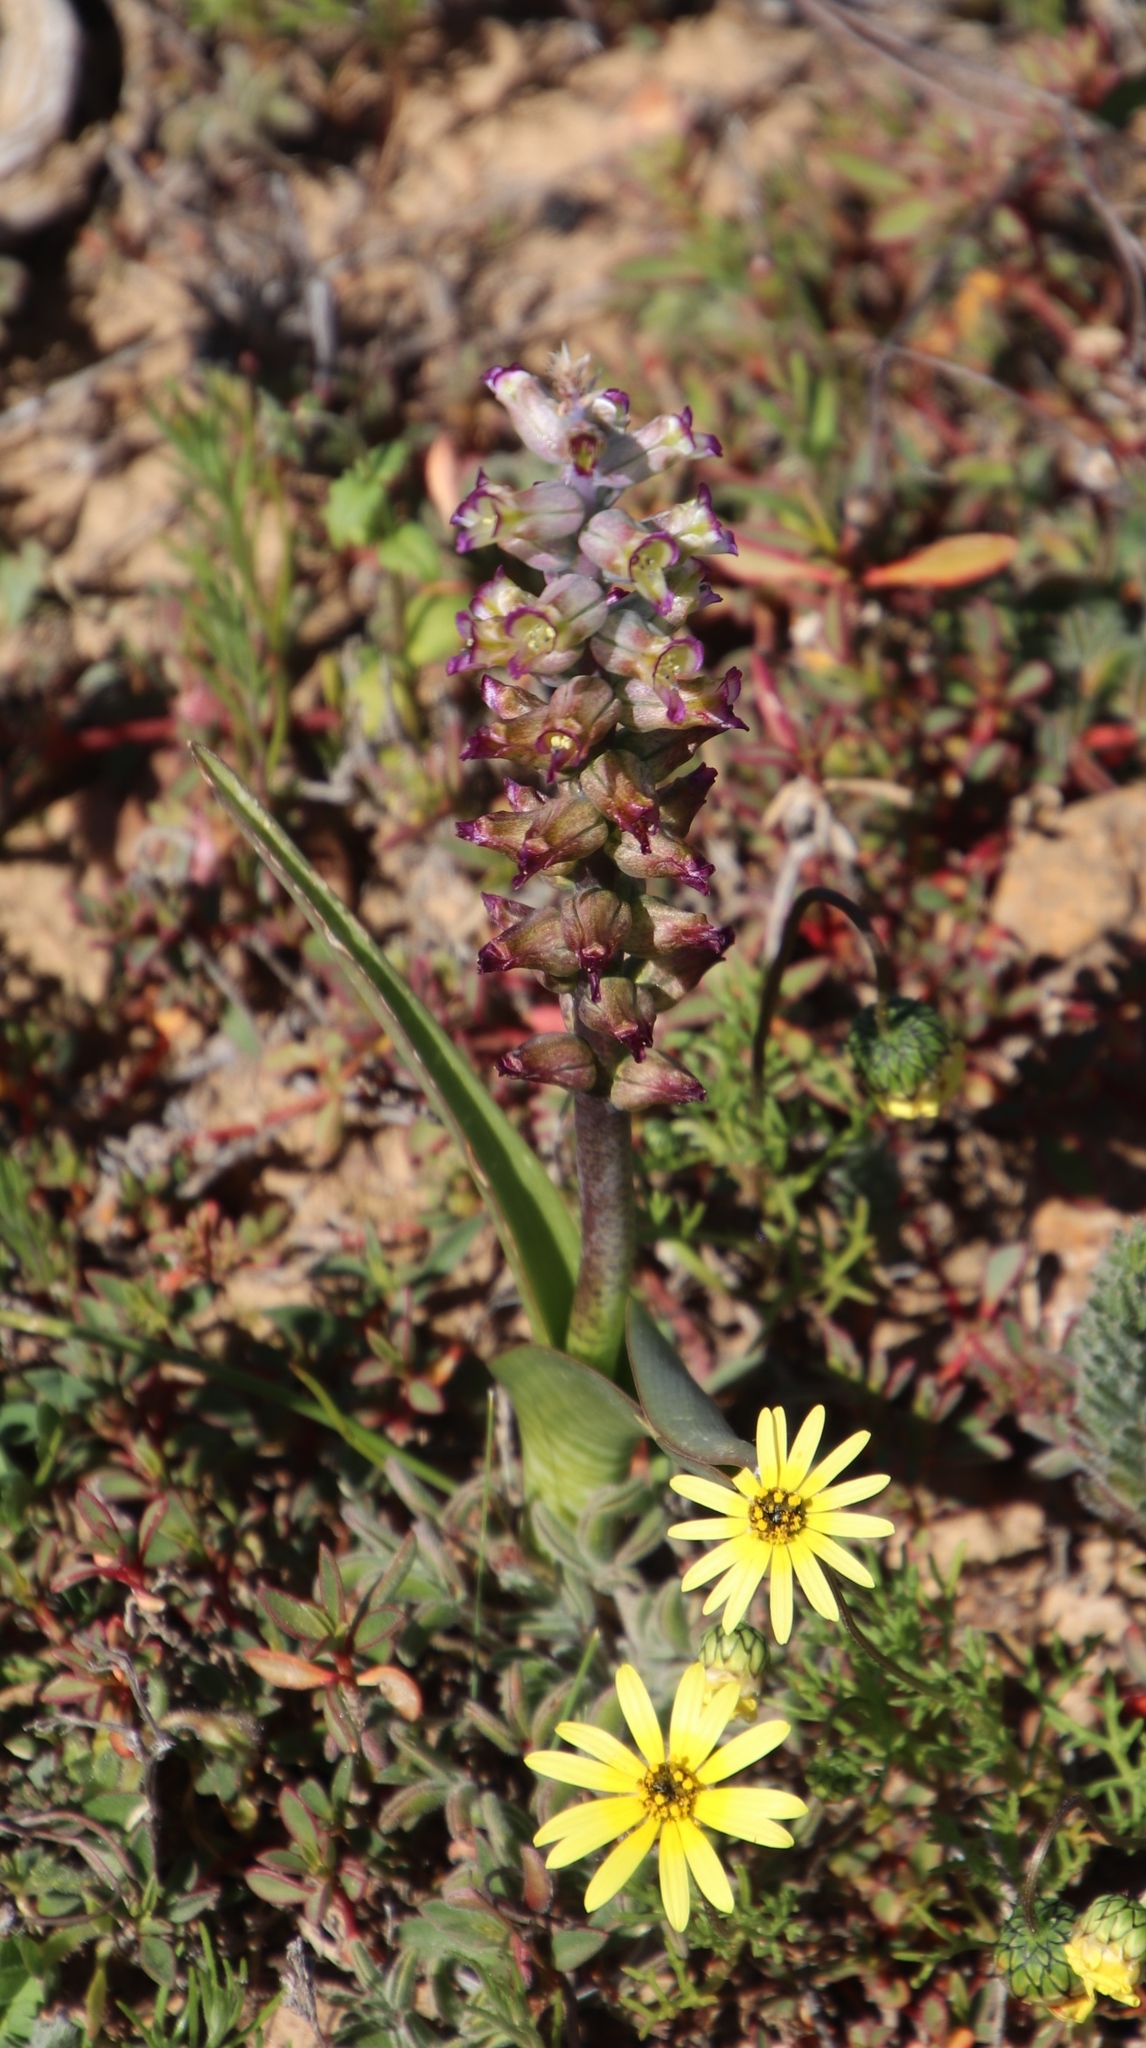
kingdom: Plantae
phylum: Tracheophyta
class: Liliopsida
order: Asparagales
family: Asparagaceae
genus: Lachenalia
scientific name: Lachenalia obscura
